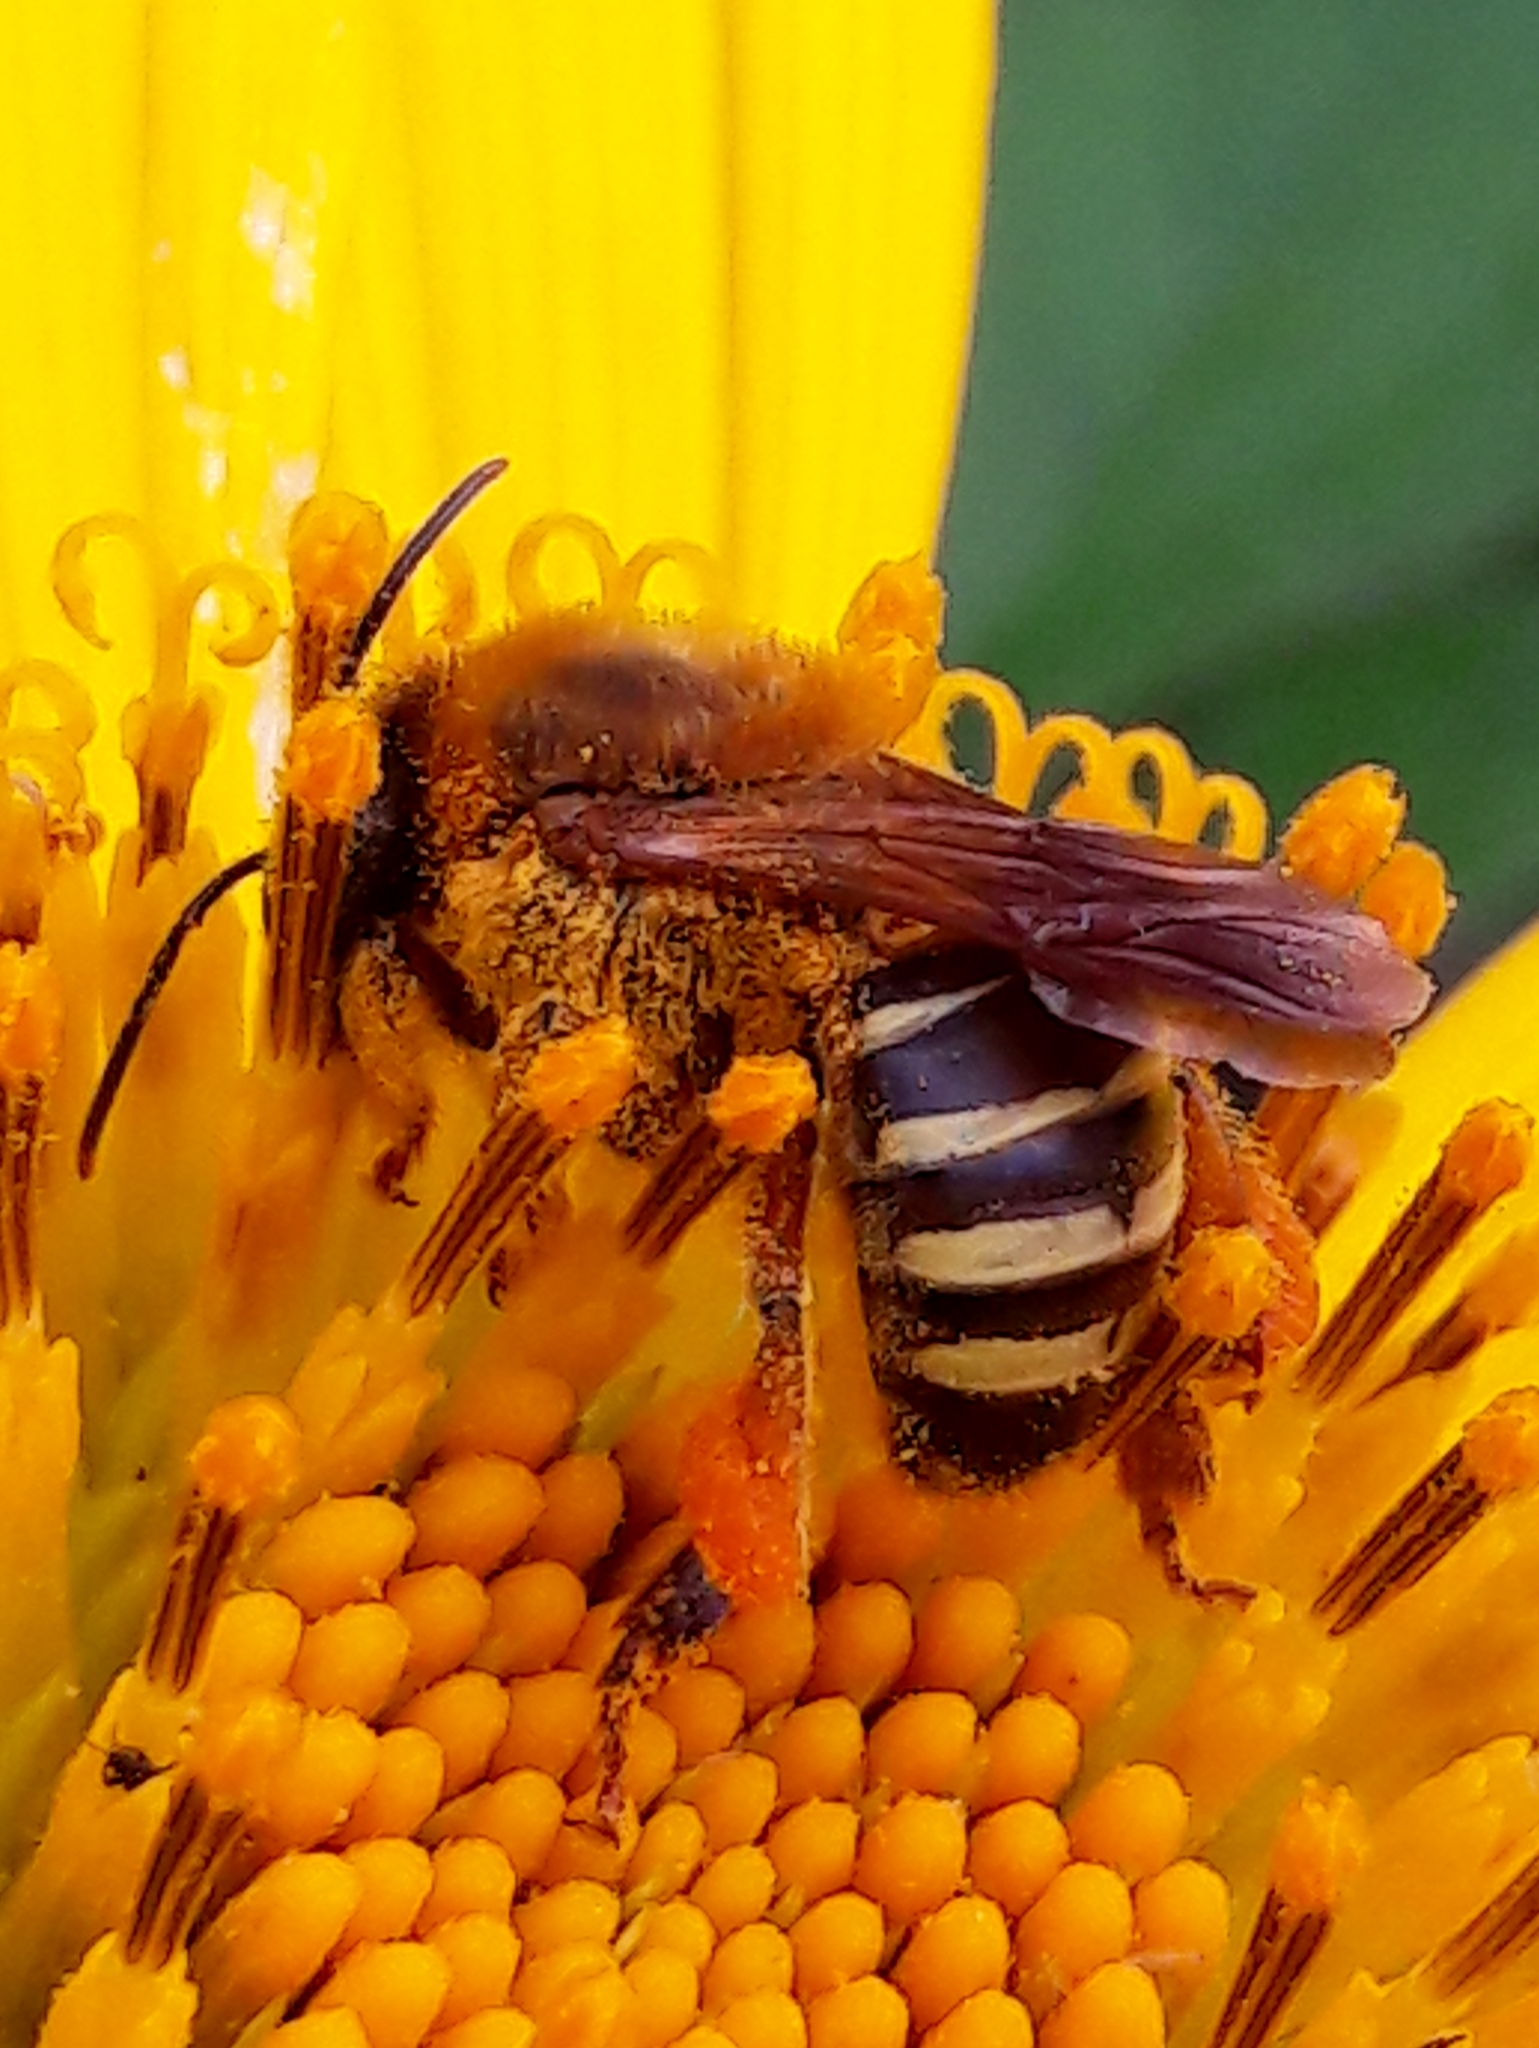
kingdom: Animalia
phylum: Arthropoda
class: Insecta
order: Hymenoptera
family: Apidae
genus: Melipona
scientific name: Melipona quinquefasciata
